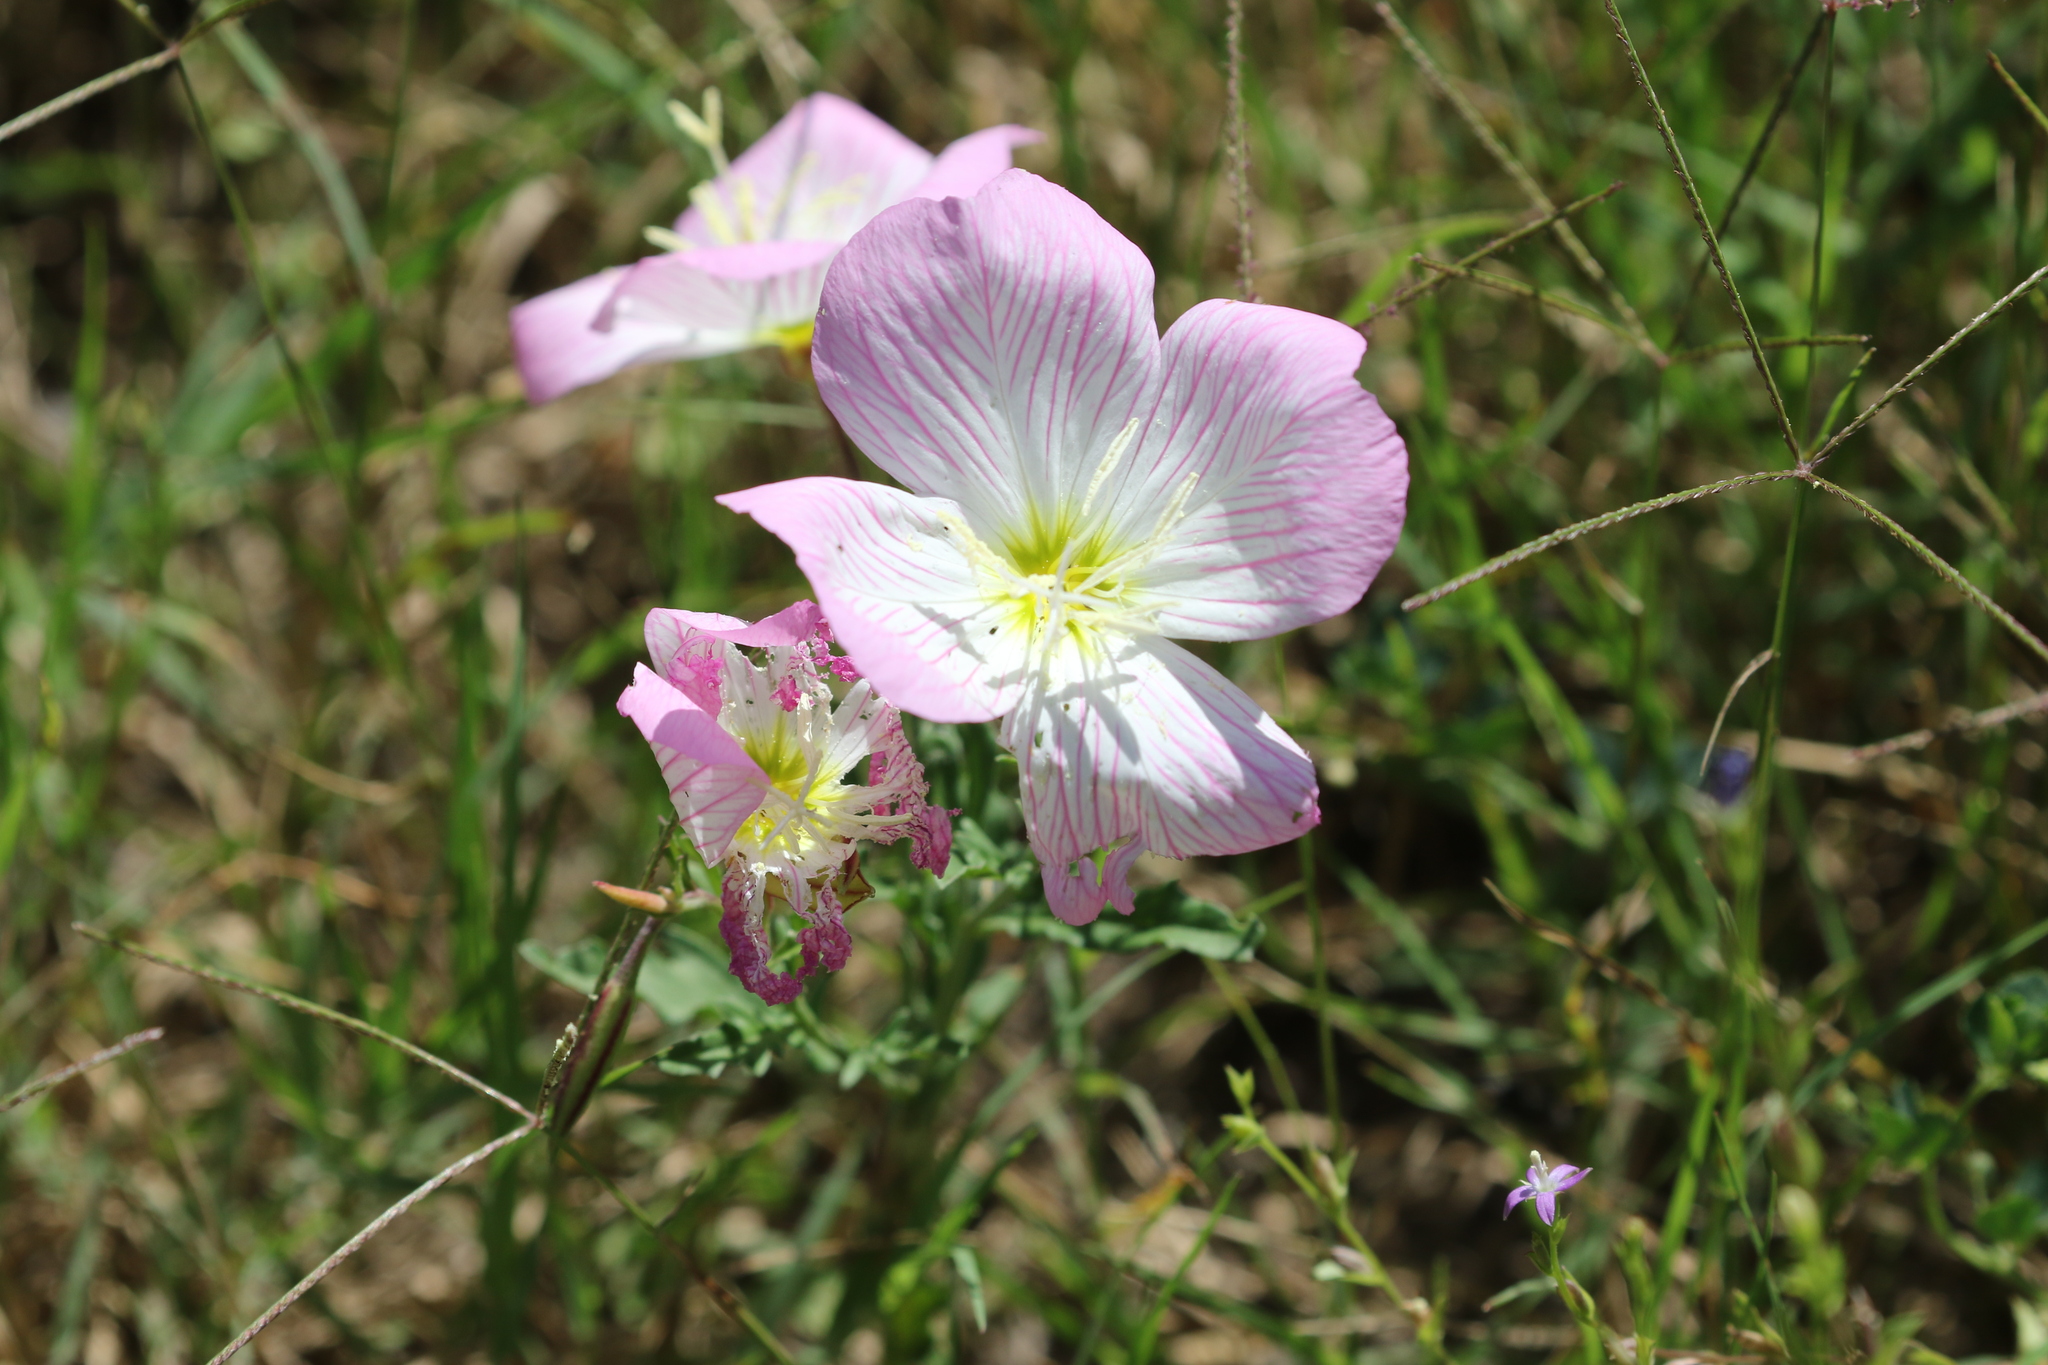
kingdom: Plantae
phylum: Tracheophyta
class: Magnoliopsida
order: Myrtales
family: Onagraceae
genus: Oenothera
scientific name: Oenothera speciosa
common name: White evening-primrose
